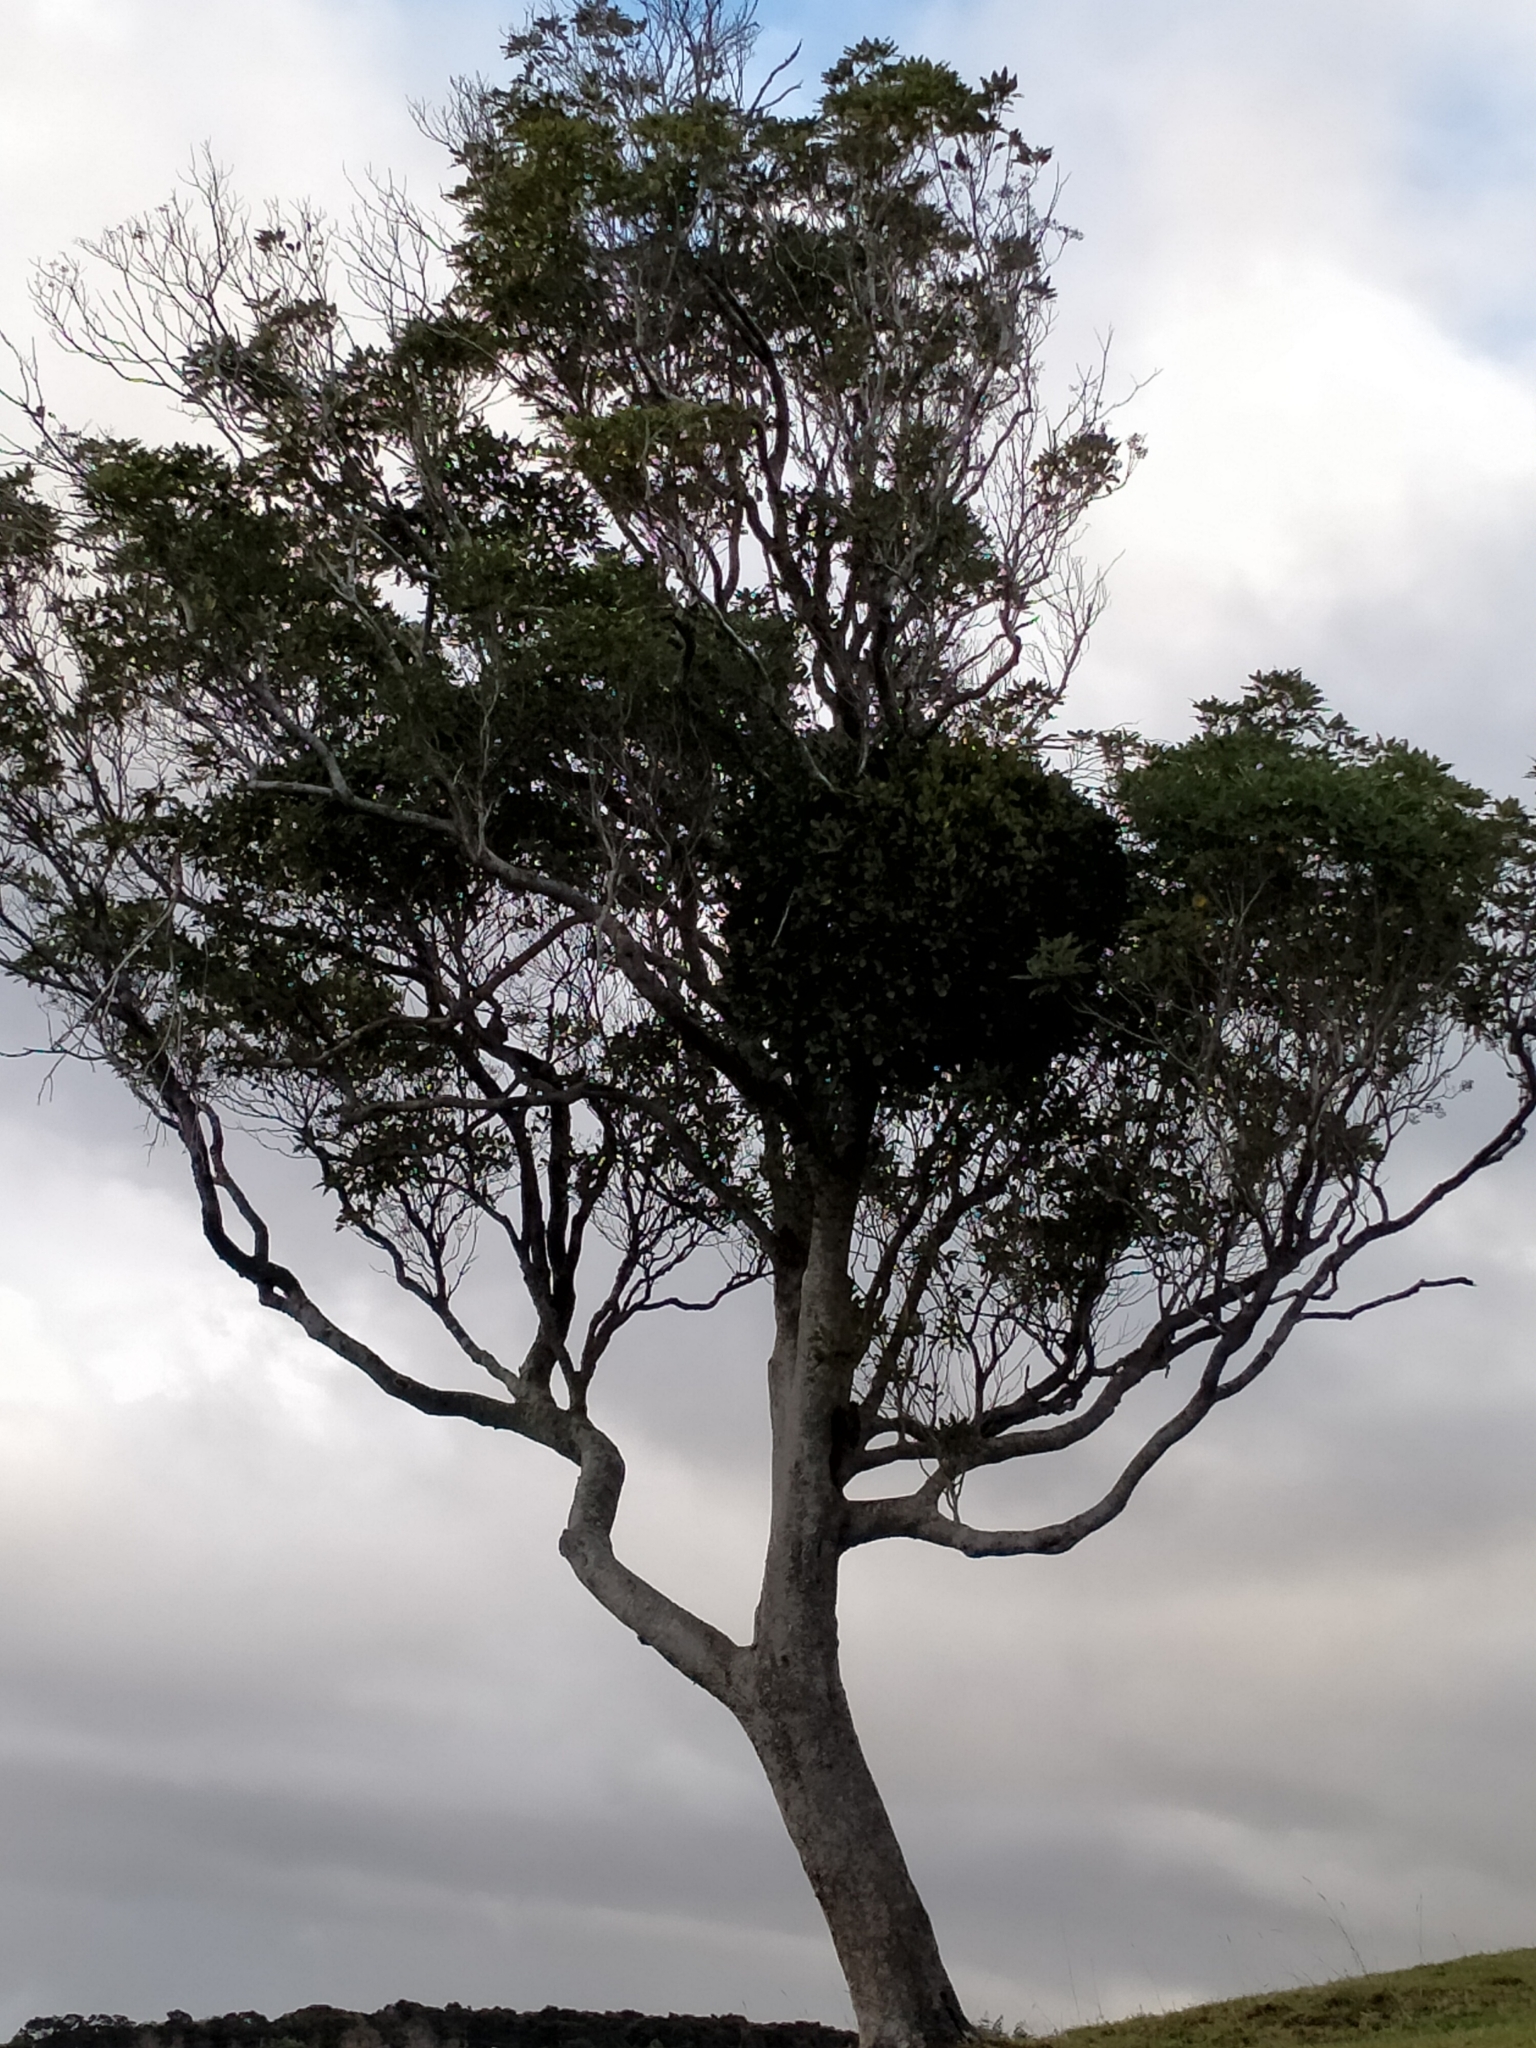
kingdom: Plantae
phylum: Tracheophyta
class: Magnoliopsida
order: Santalales
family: Loranthaceae
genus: Ileostylus
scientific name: Ileostylus micranthus
